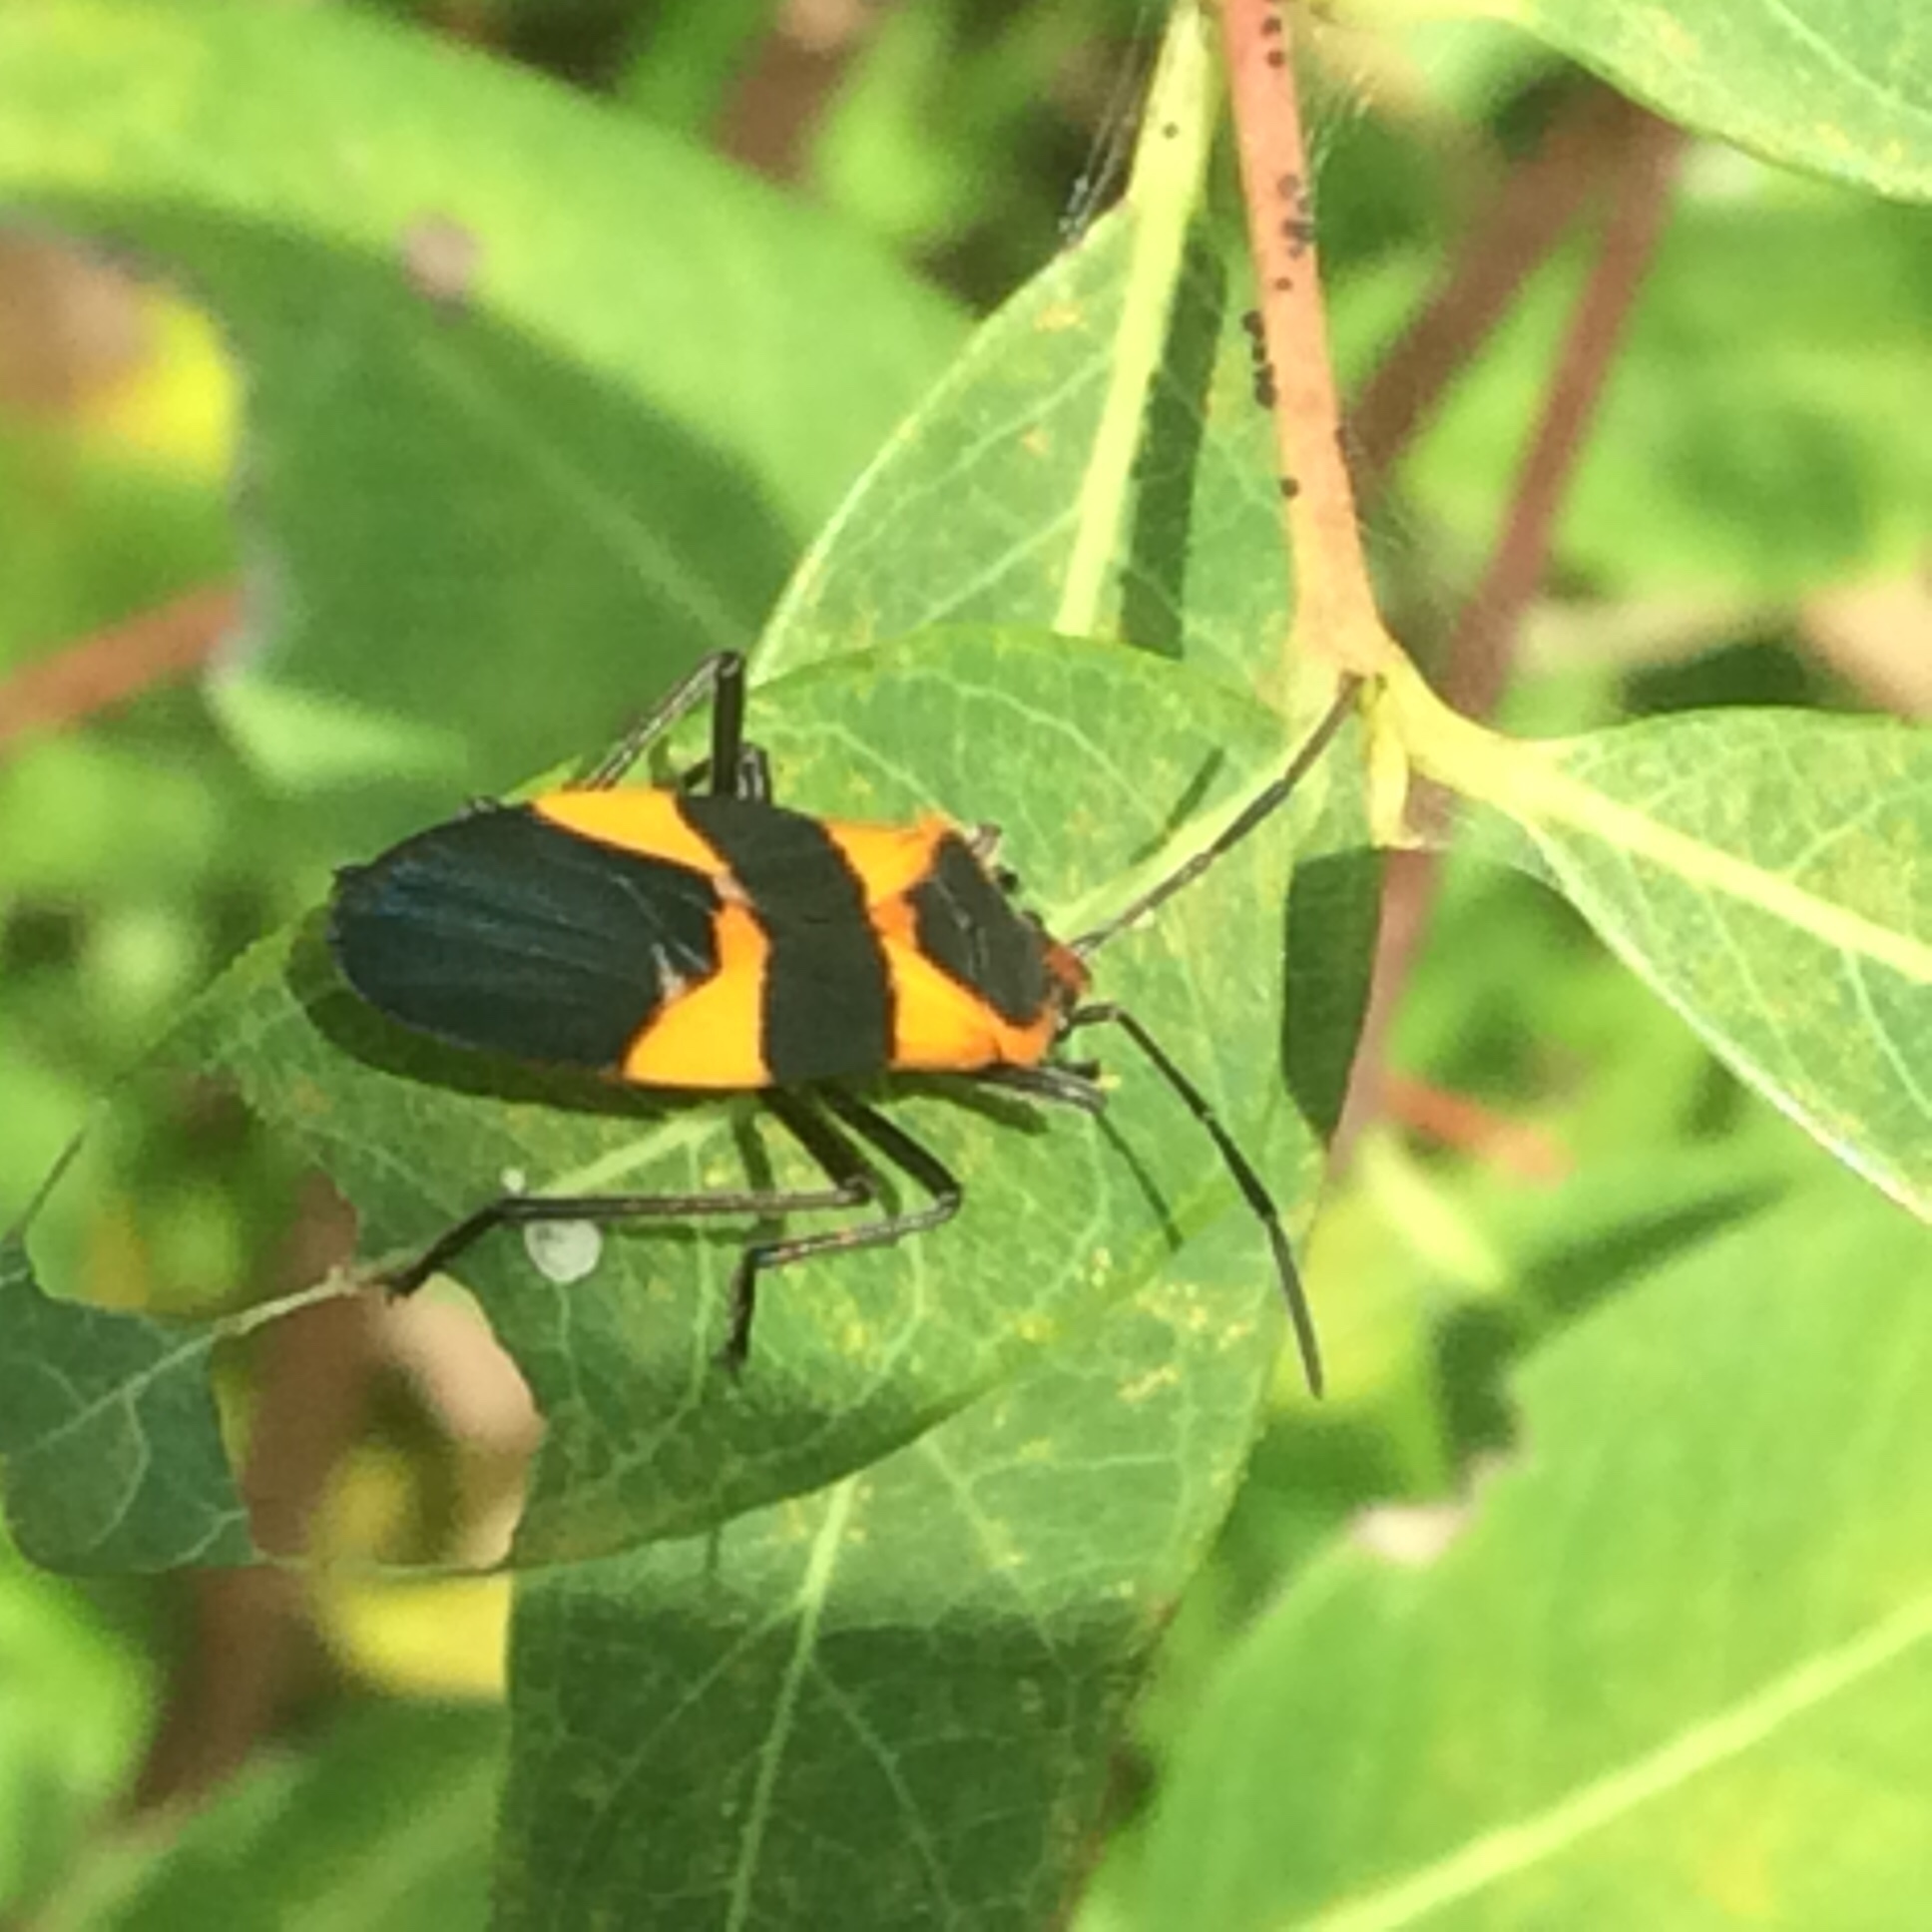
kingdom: Animalia
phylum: Arthropoda
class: Insecta
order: Hemiptera
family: Lygaeidae
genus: Oncopeltus
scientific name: Oncopeltus fasciatus
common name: Large milkweed bug
